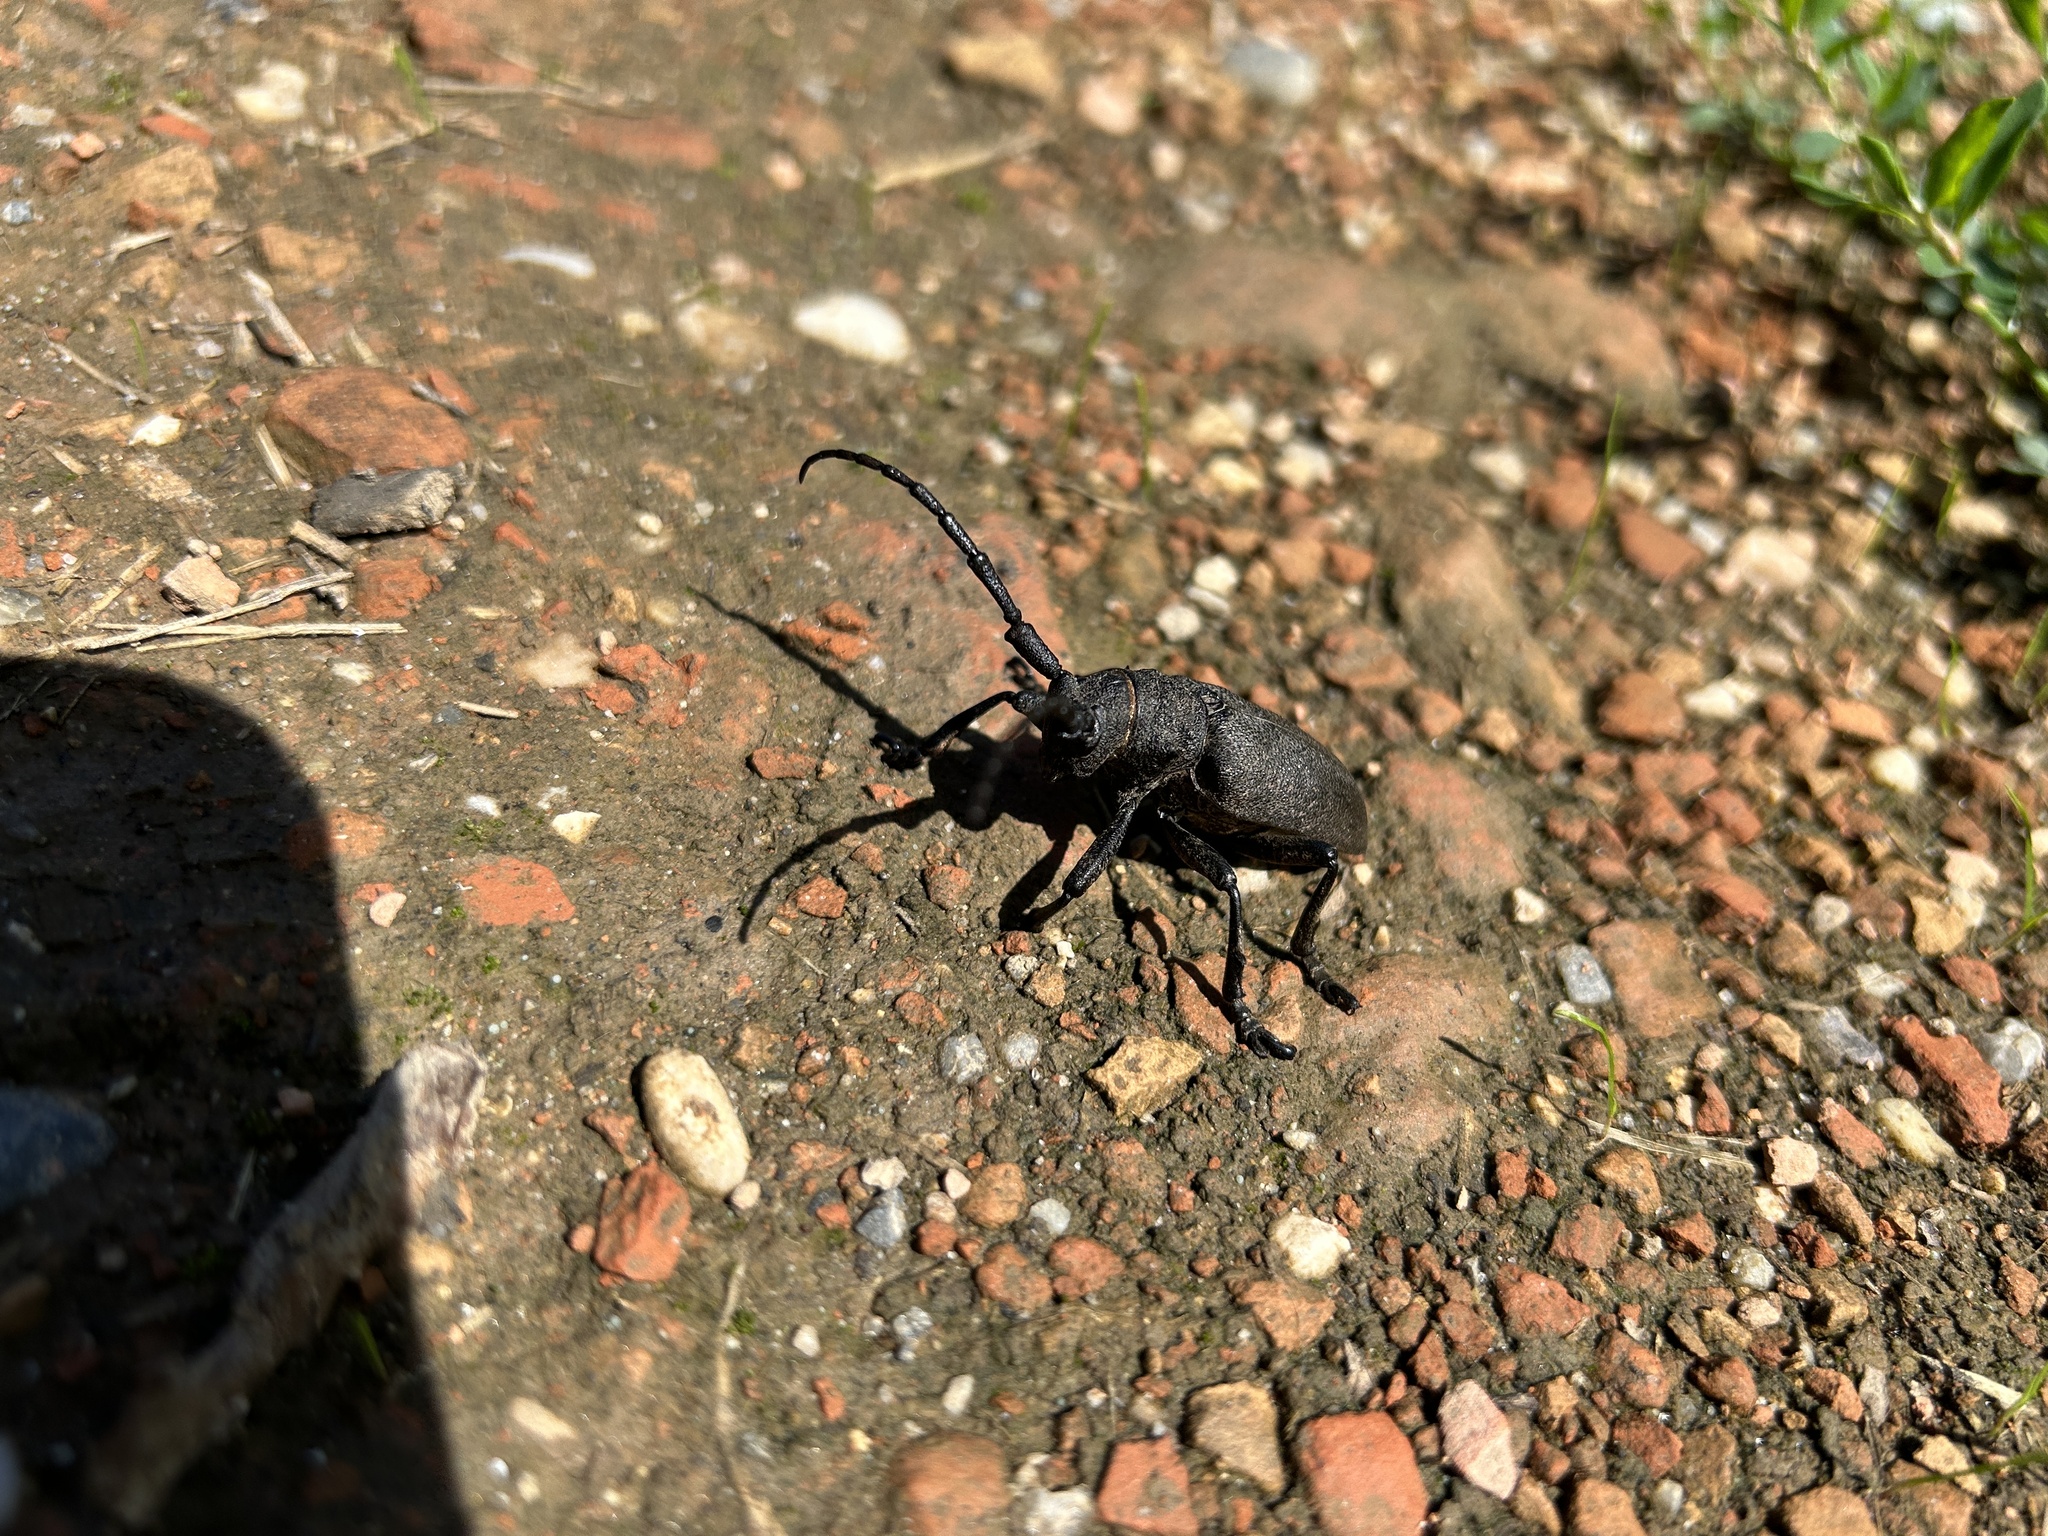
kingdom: Animalia
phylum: Arthropoda
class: Insecta
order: Coleoptera
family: Cerambycidae
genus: Lamia
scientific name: Lamia textor
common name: Weaver beetle
